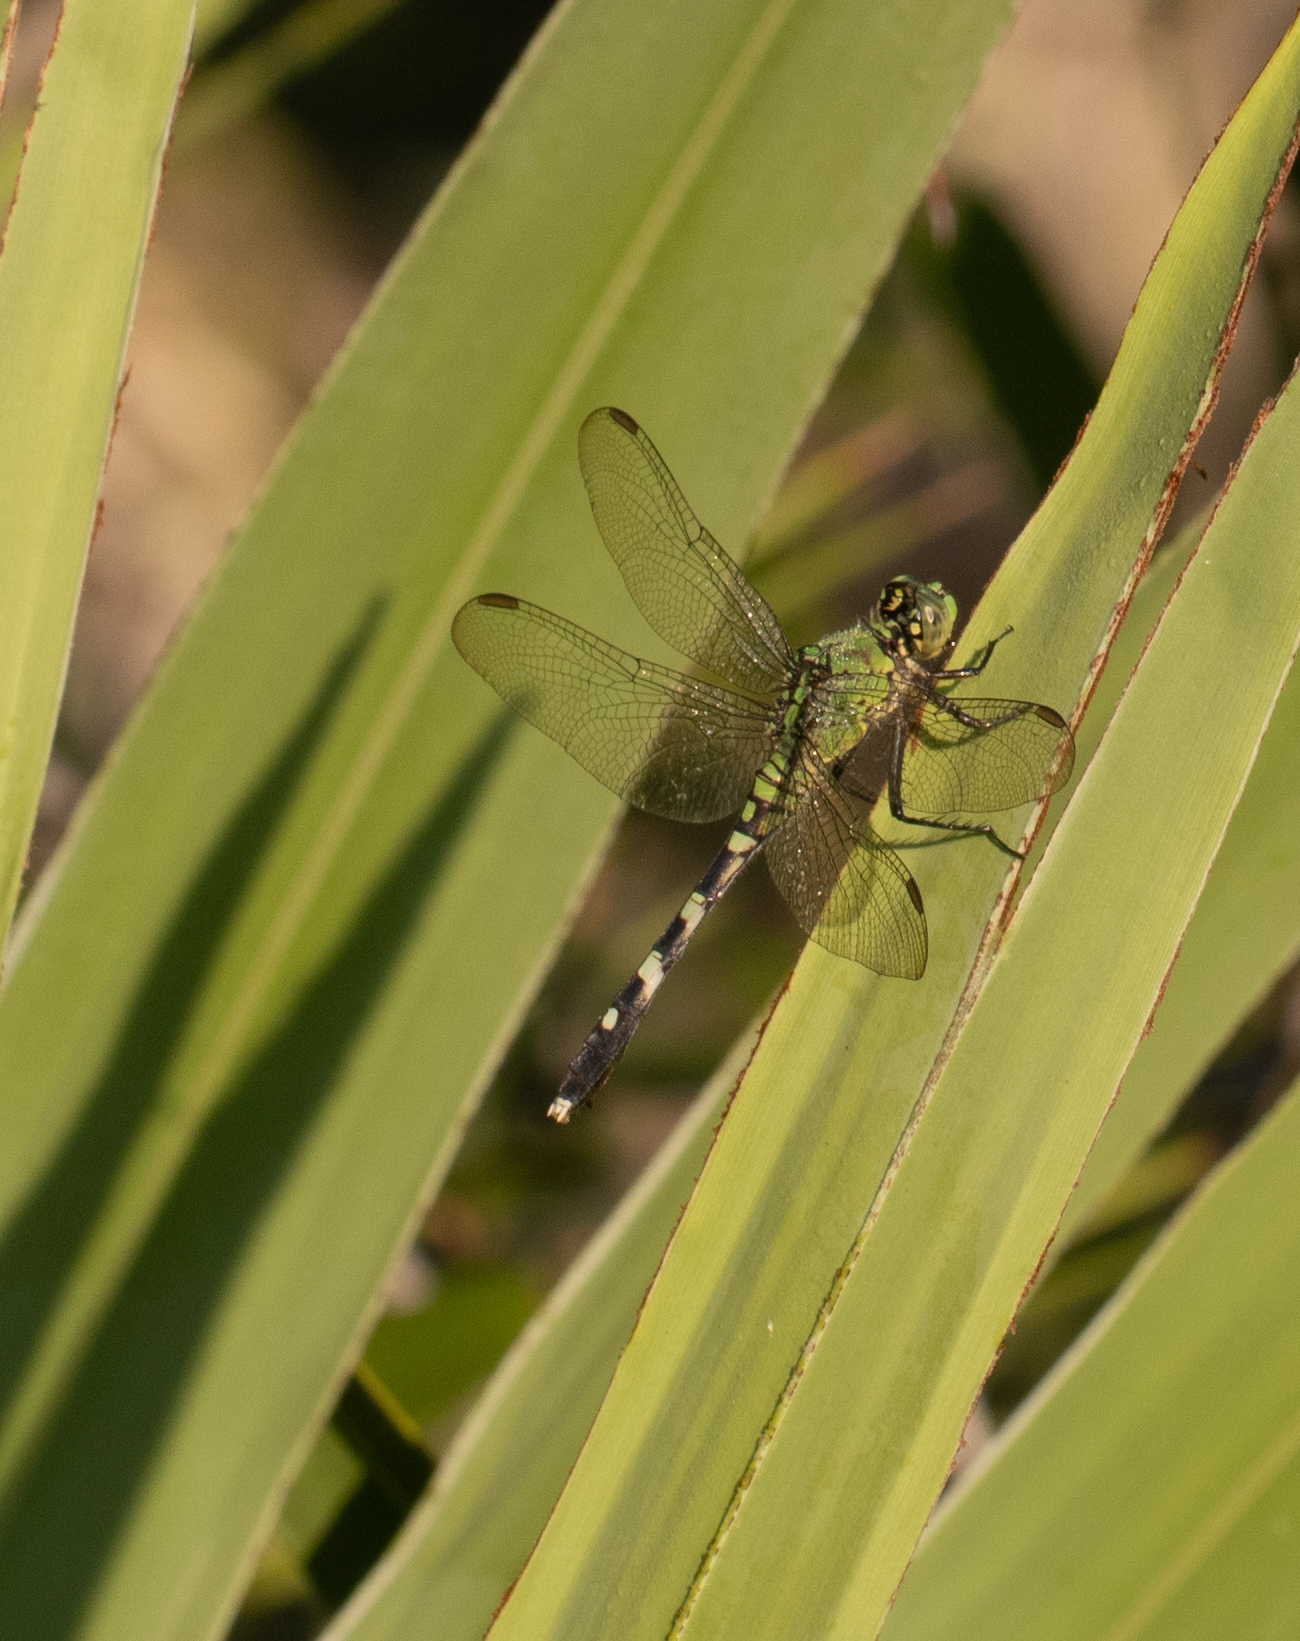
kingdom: Animalia
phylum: Arthropoda
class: Insecta
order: Odonata
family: Libellulidae
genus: Erythemis
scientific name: Erythemis simplicicollis
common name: Eastern pondhawk
